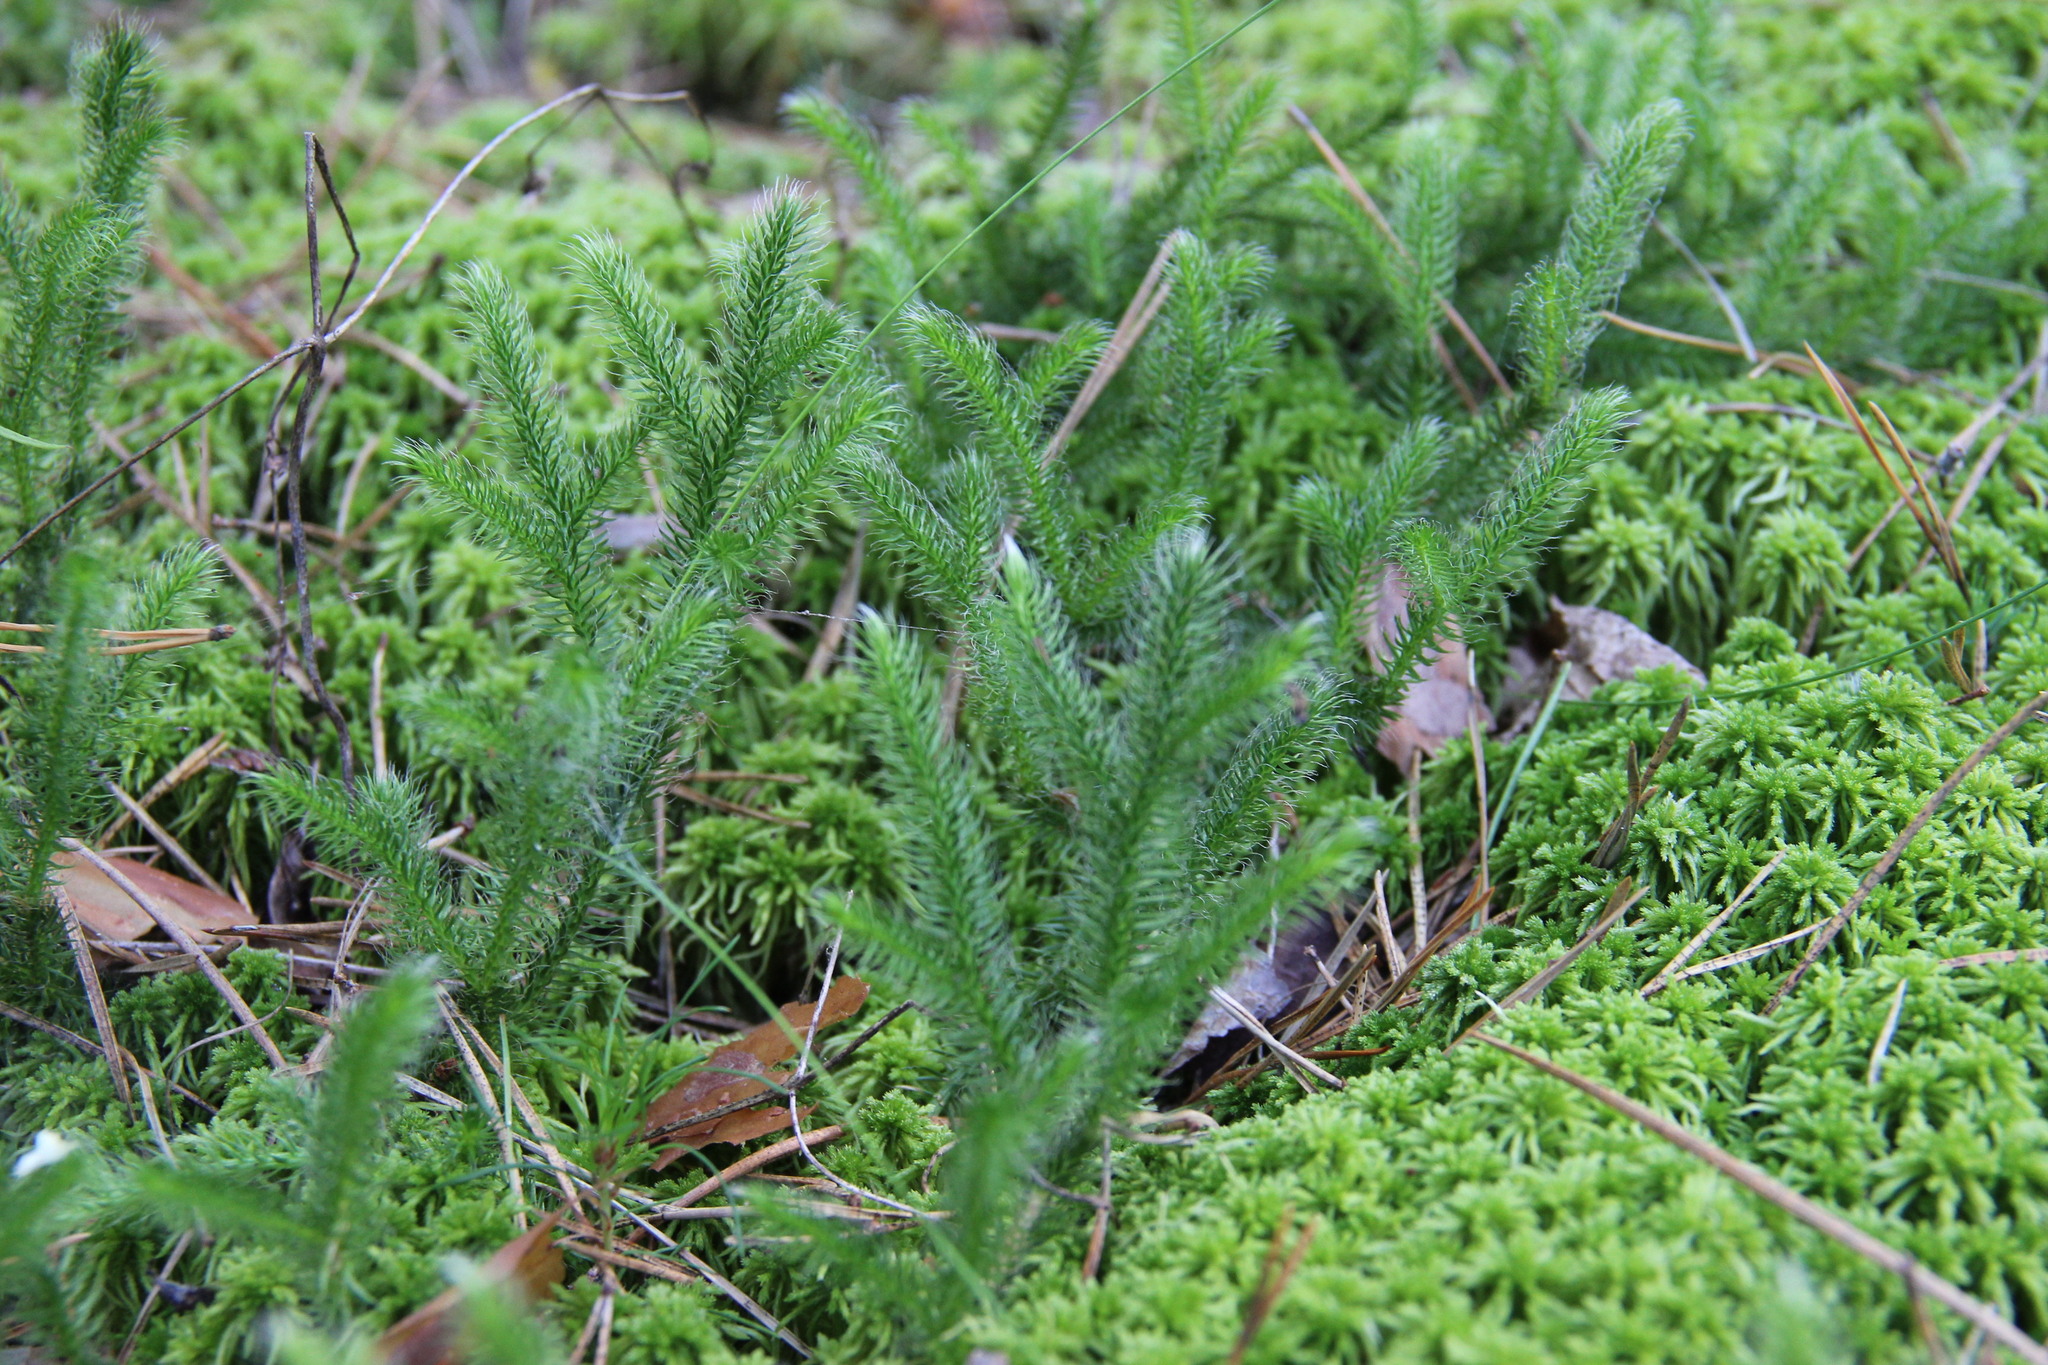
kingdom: Plantae
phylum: Tracheophyta
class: Lycopodiopsida
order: Lycopodiales
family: Lycopodiaceae
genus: Lycopodium
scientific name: Lycopodium clavatum
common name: Stag's-horn clubmoss
